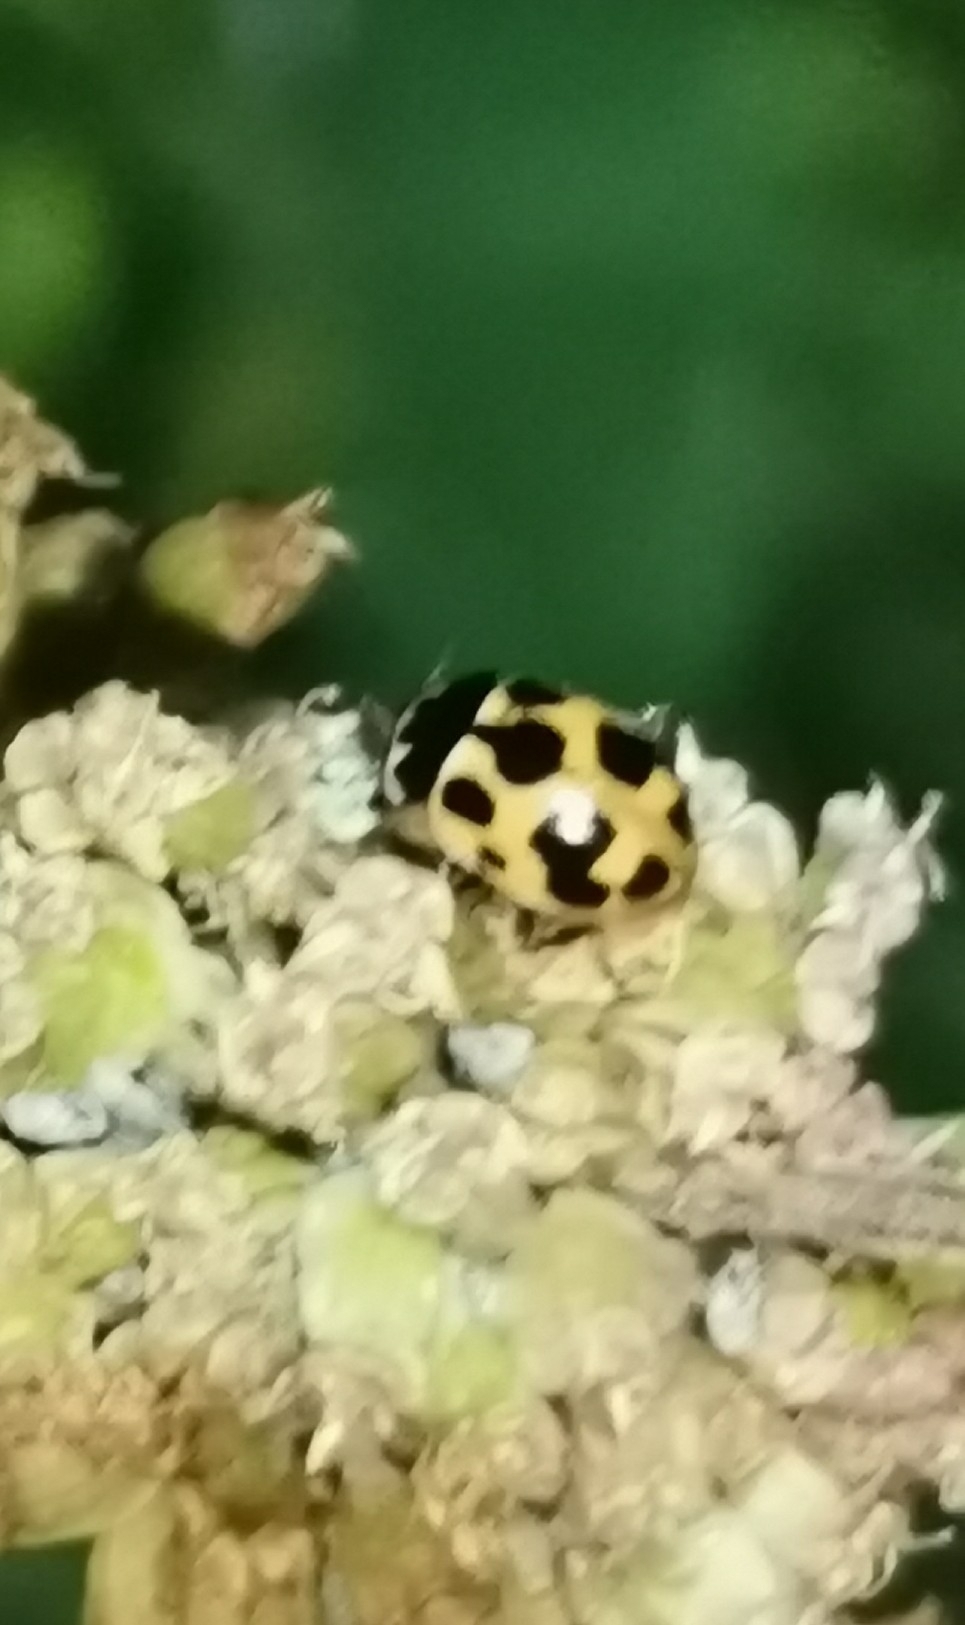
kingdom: Animalia
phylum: Arthropoda
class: Insecta
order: Coleoptera
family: Coccinellidae
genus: Ceratomegilla
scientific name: Ceratomegilla notata
